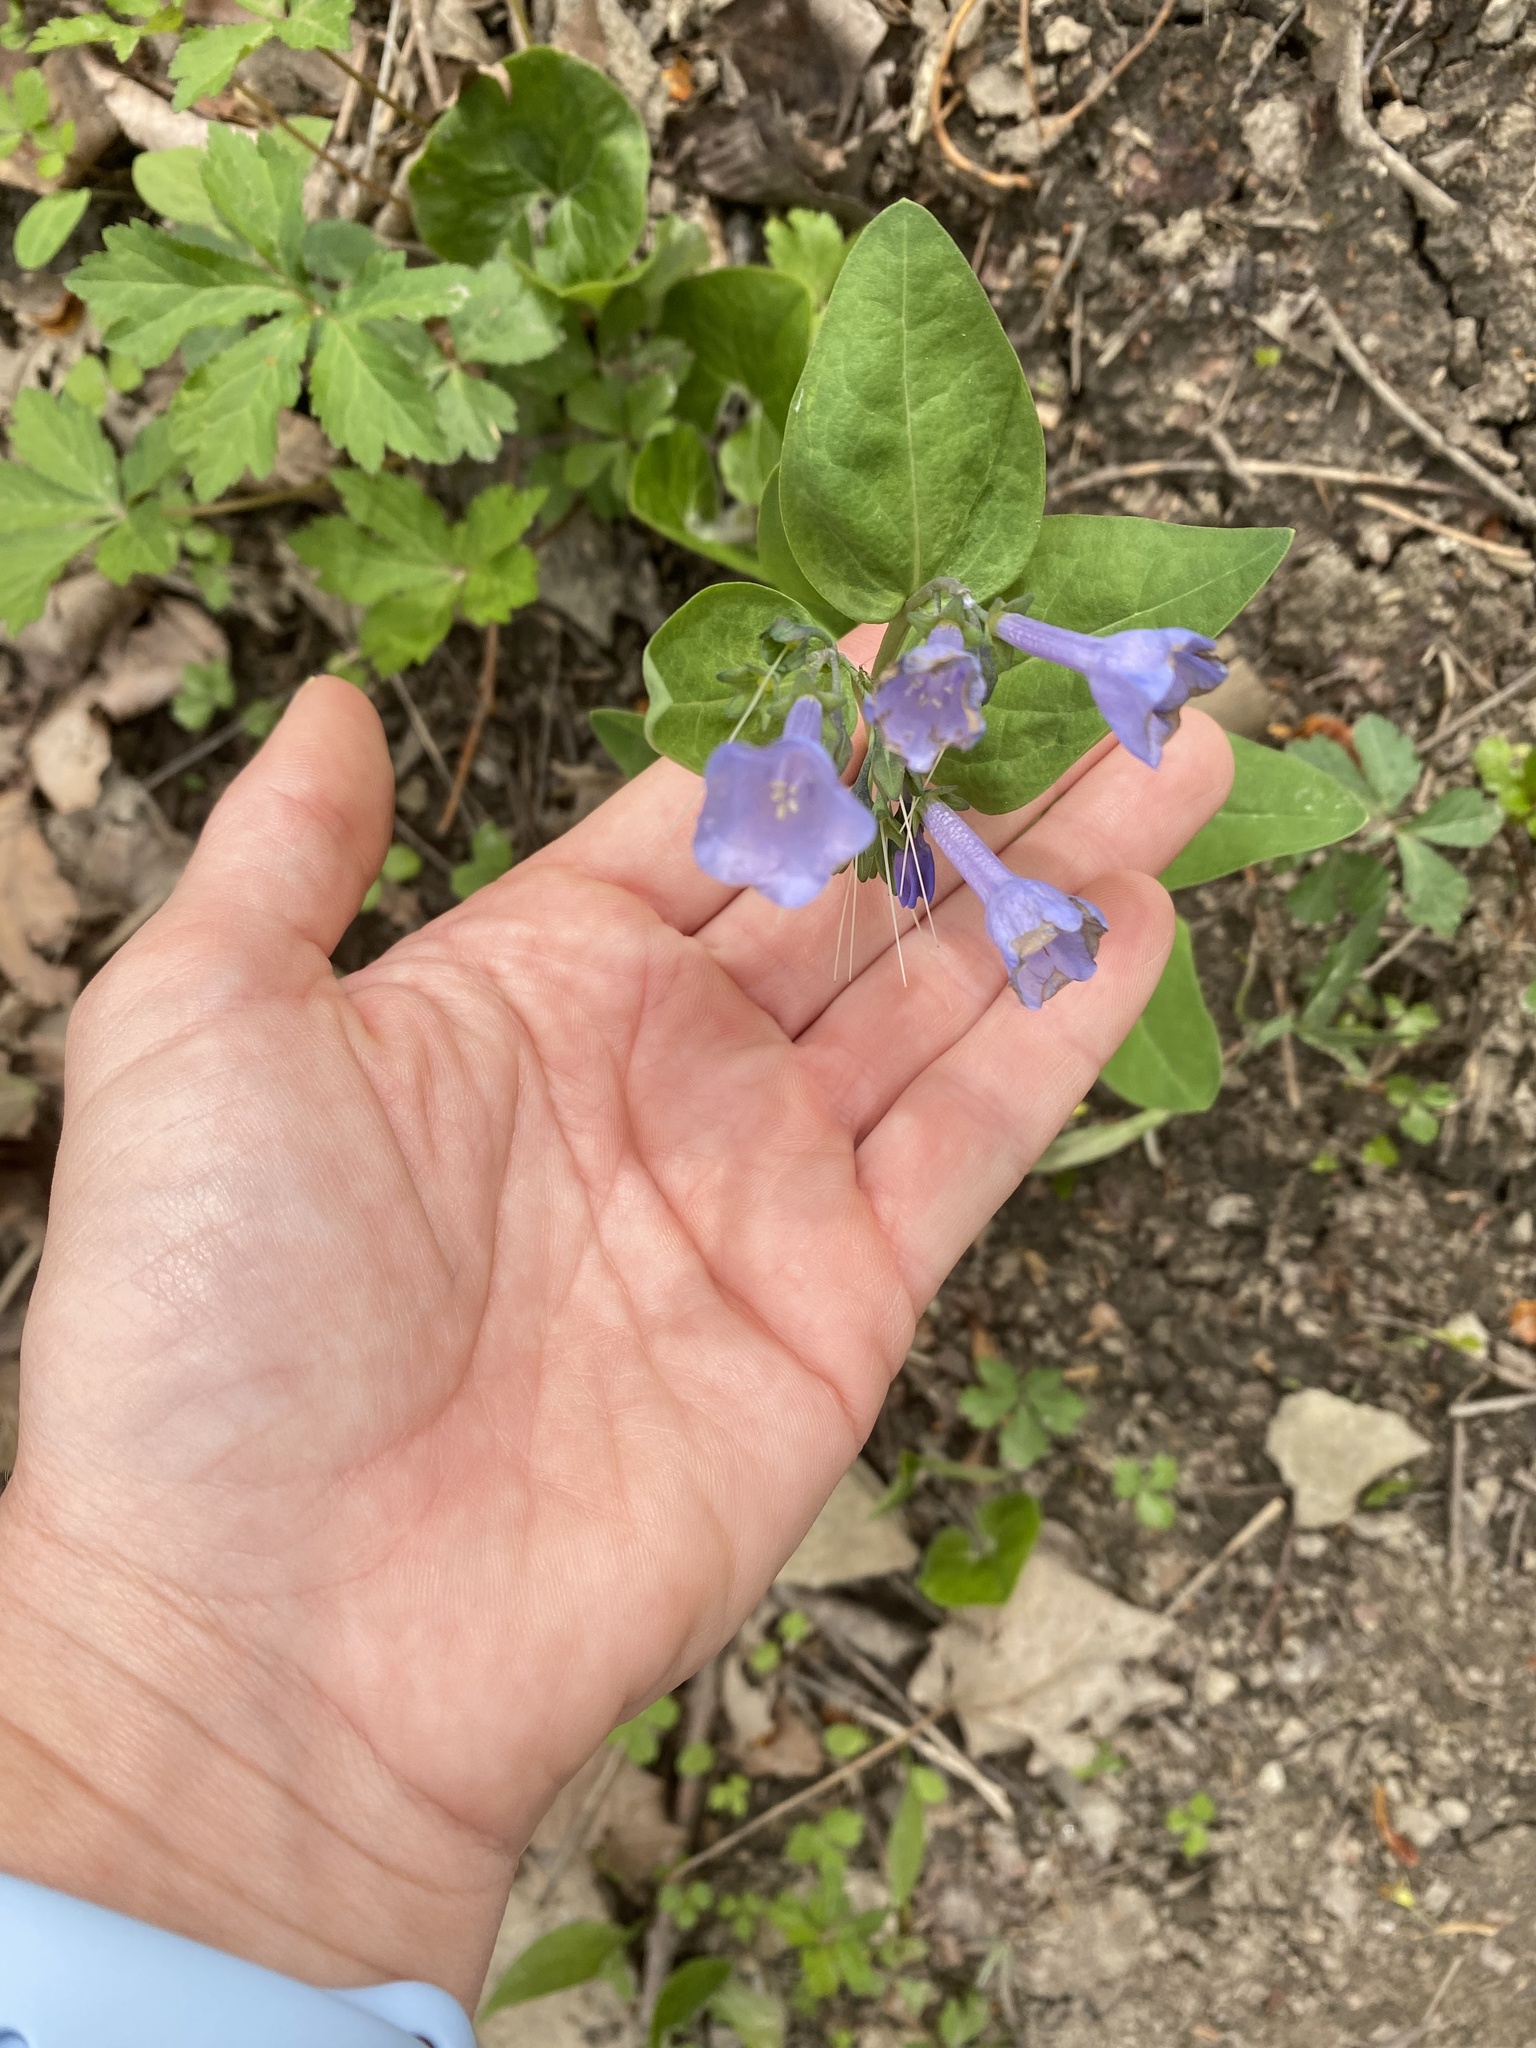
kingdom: Plantae
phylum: Tracheophyta
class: Magnoliopsida
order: Boraginales
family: Boraginaceae
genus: Mertensia
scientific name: Mertensia virginica
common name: Virginia bluebells
